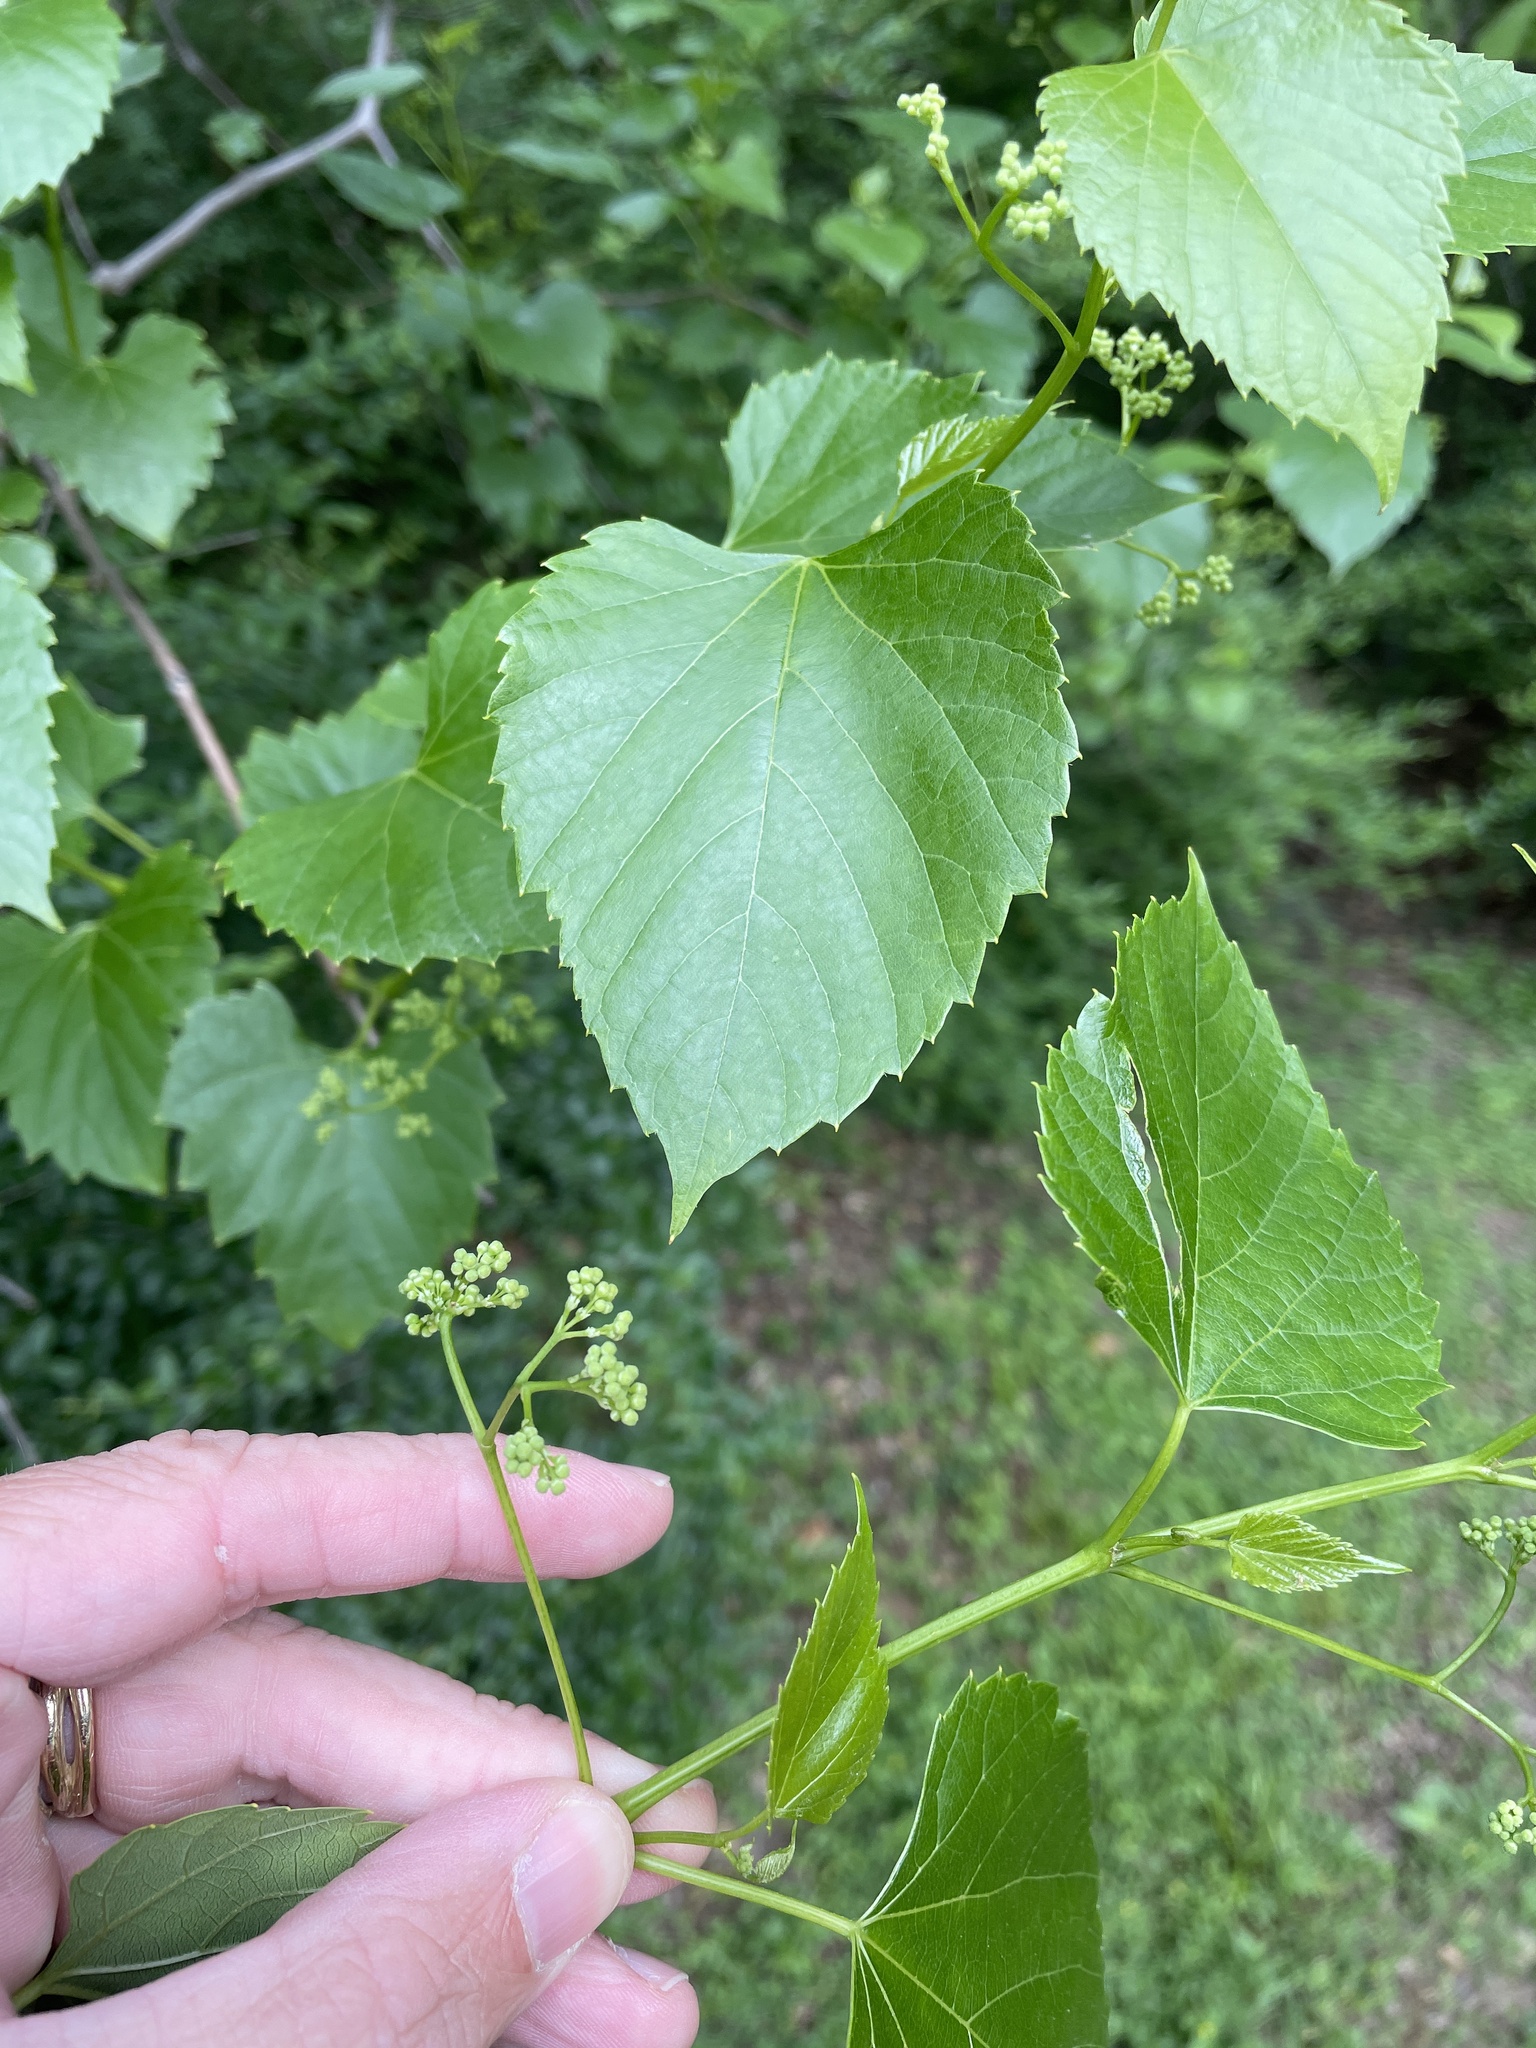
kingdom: Plantae
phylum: Tracheophyta
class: Magnoliopsida
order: Vitales
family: Vitaceae
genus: Ampelopsis
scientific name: Ampelopsis cordata
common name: Heart-leaf ampelopsis
